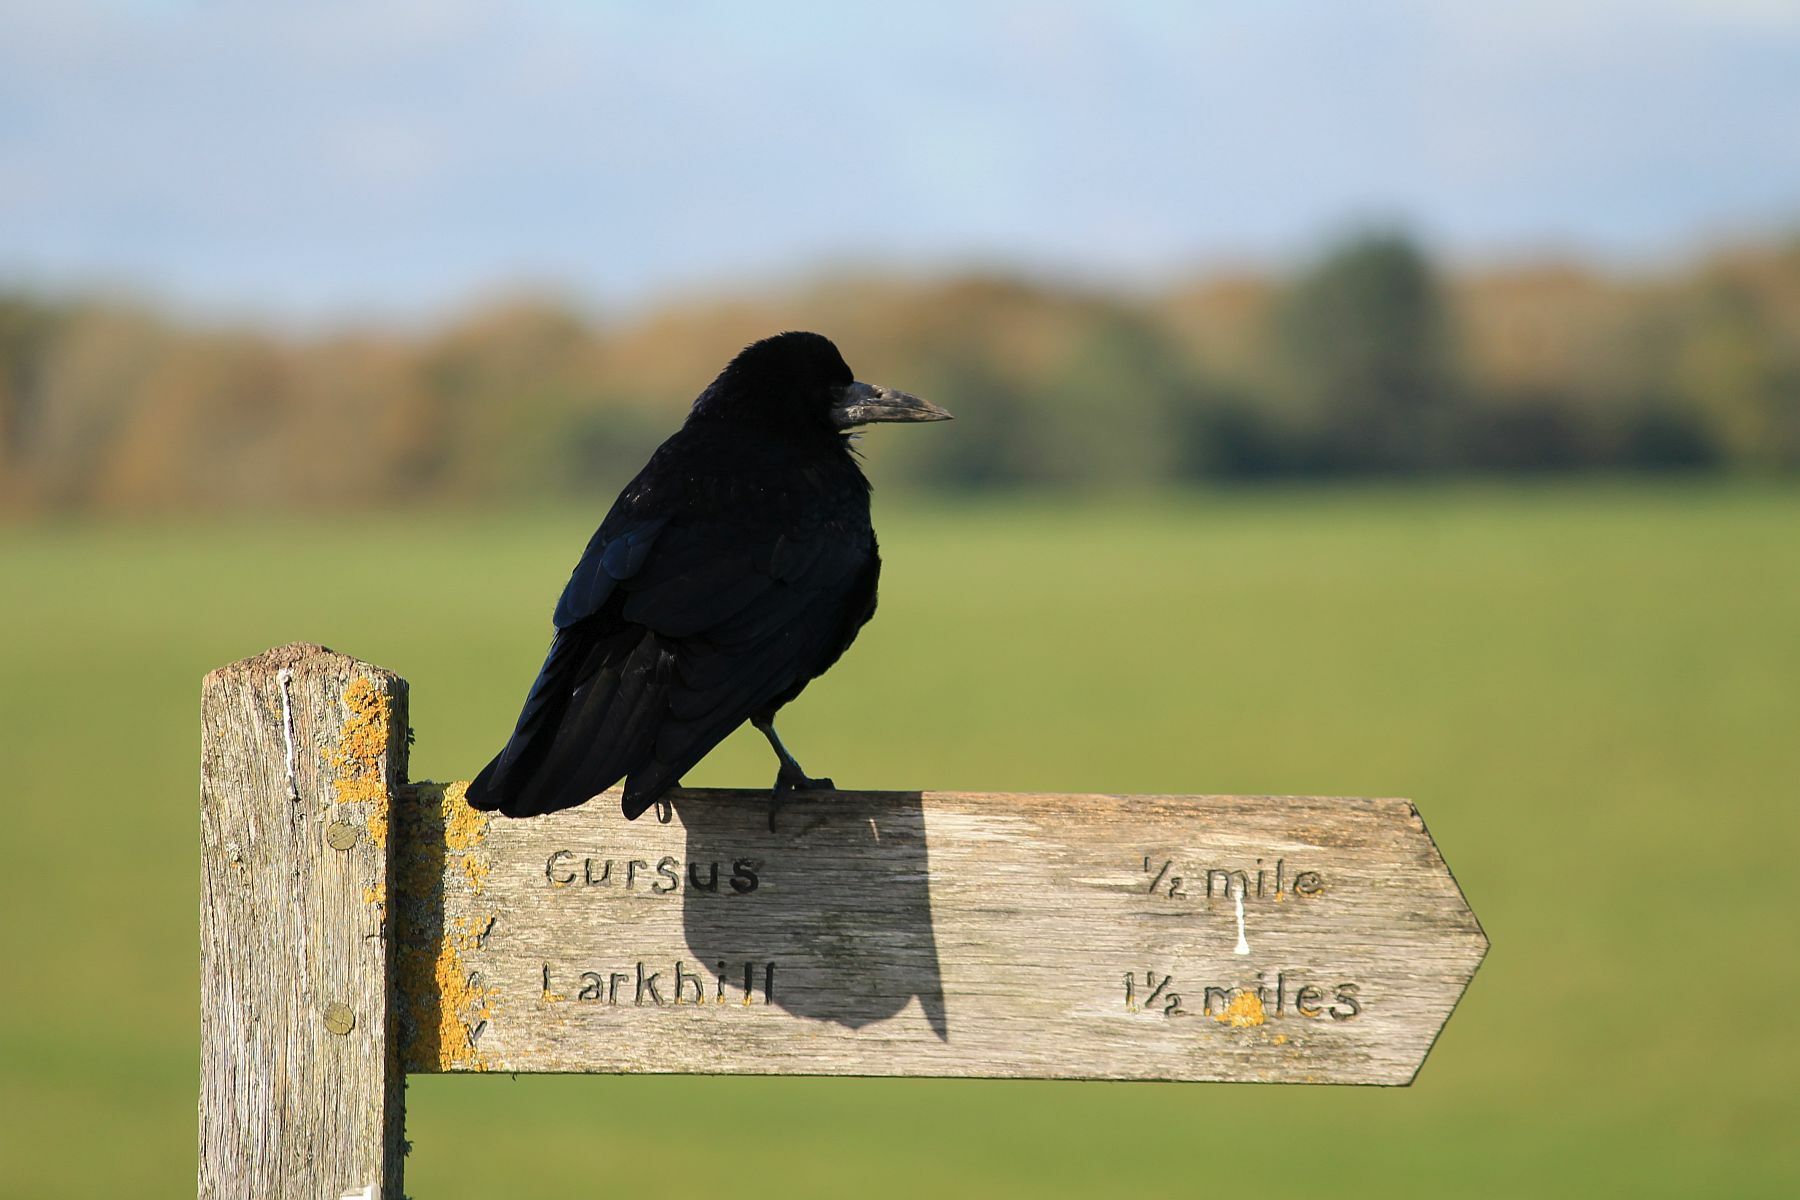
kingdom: Animalia
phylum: Chordata
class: Aves
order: Passeriformes
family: Corvidae
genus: Corvus
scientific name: Corvus frugilegus
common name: Rook
